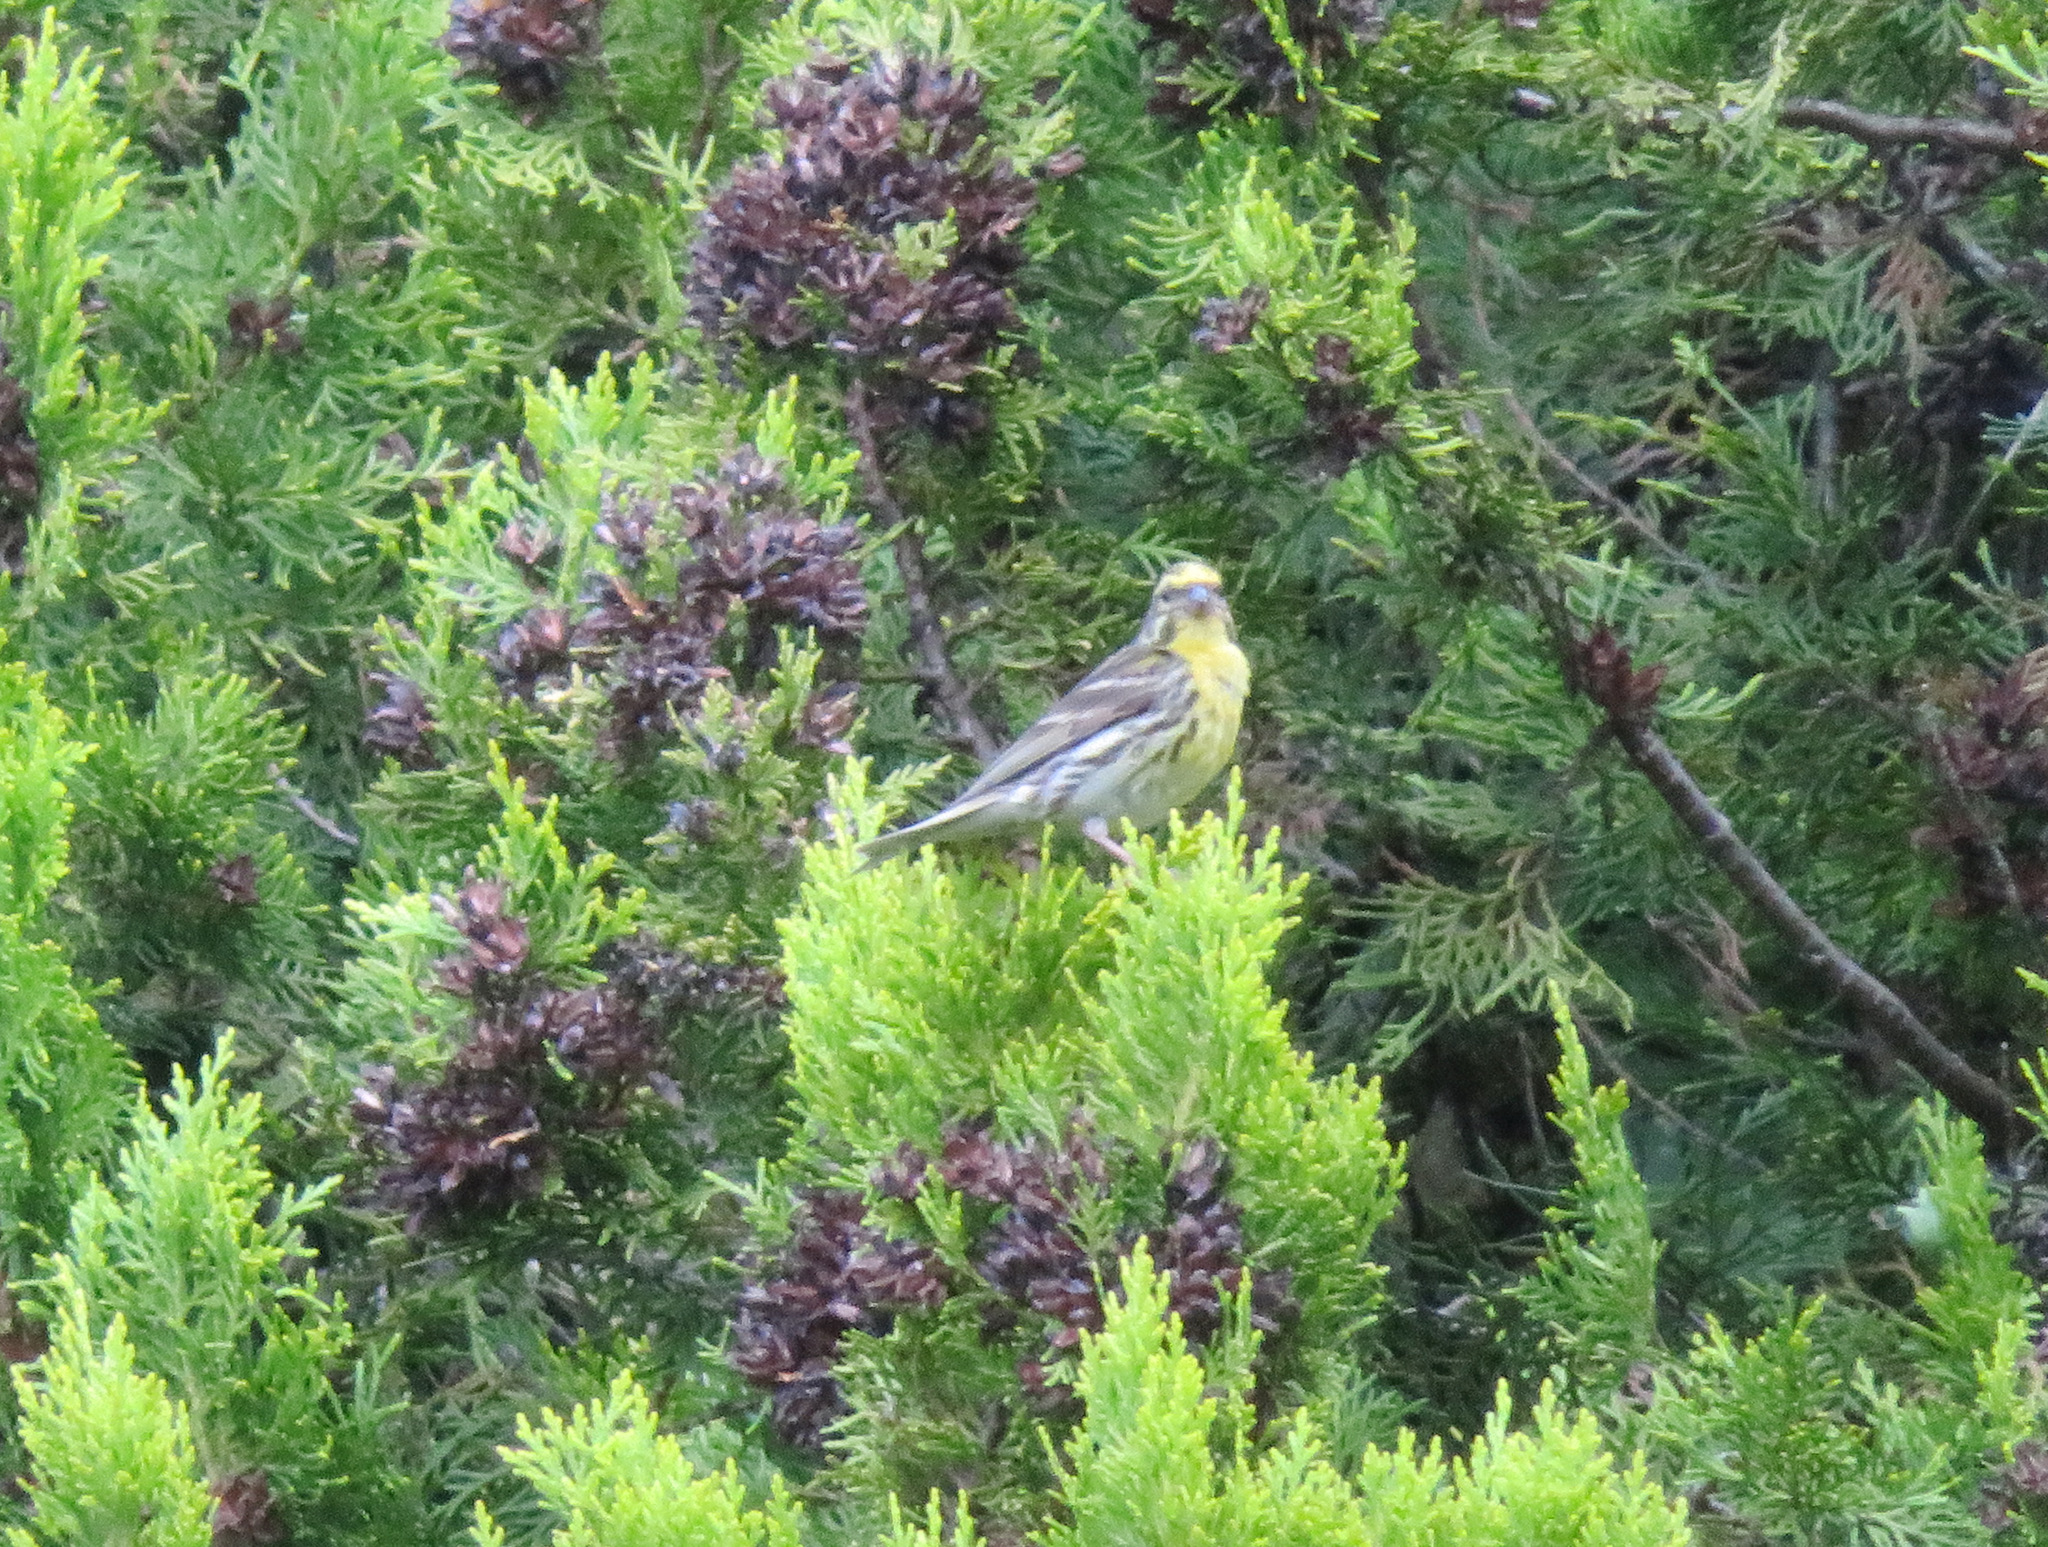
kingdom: Animalia
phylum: Chordata
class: Aves
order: Passeriformes
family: Fringillidae
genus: Serinus
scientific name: Serinus serinus
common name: European serin
